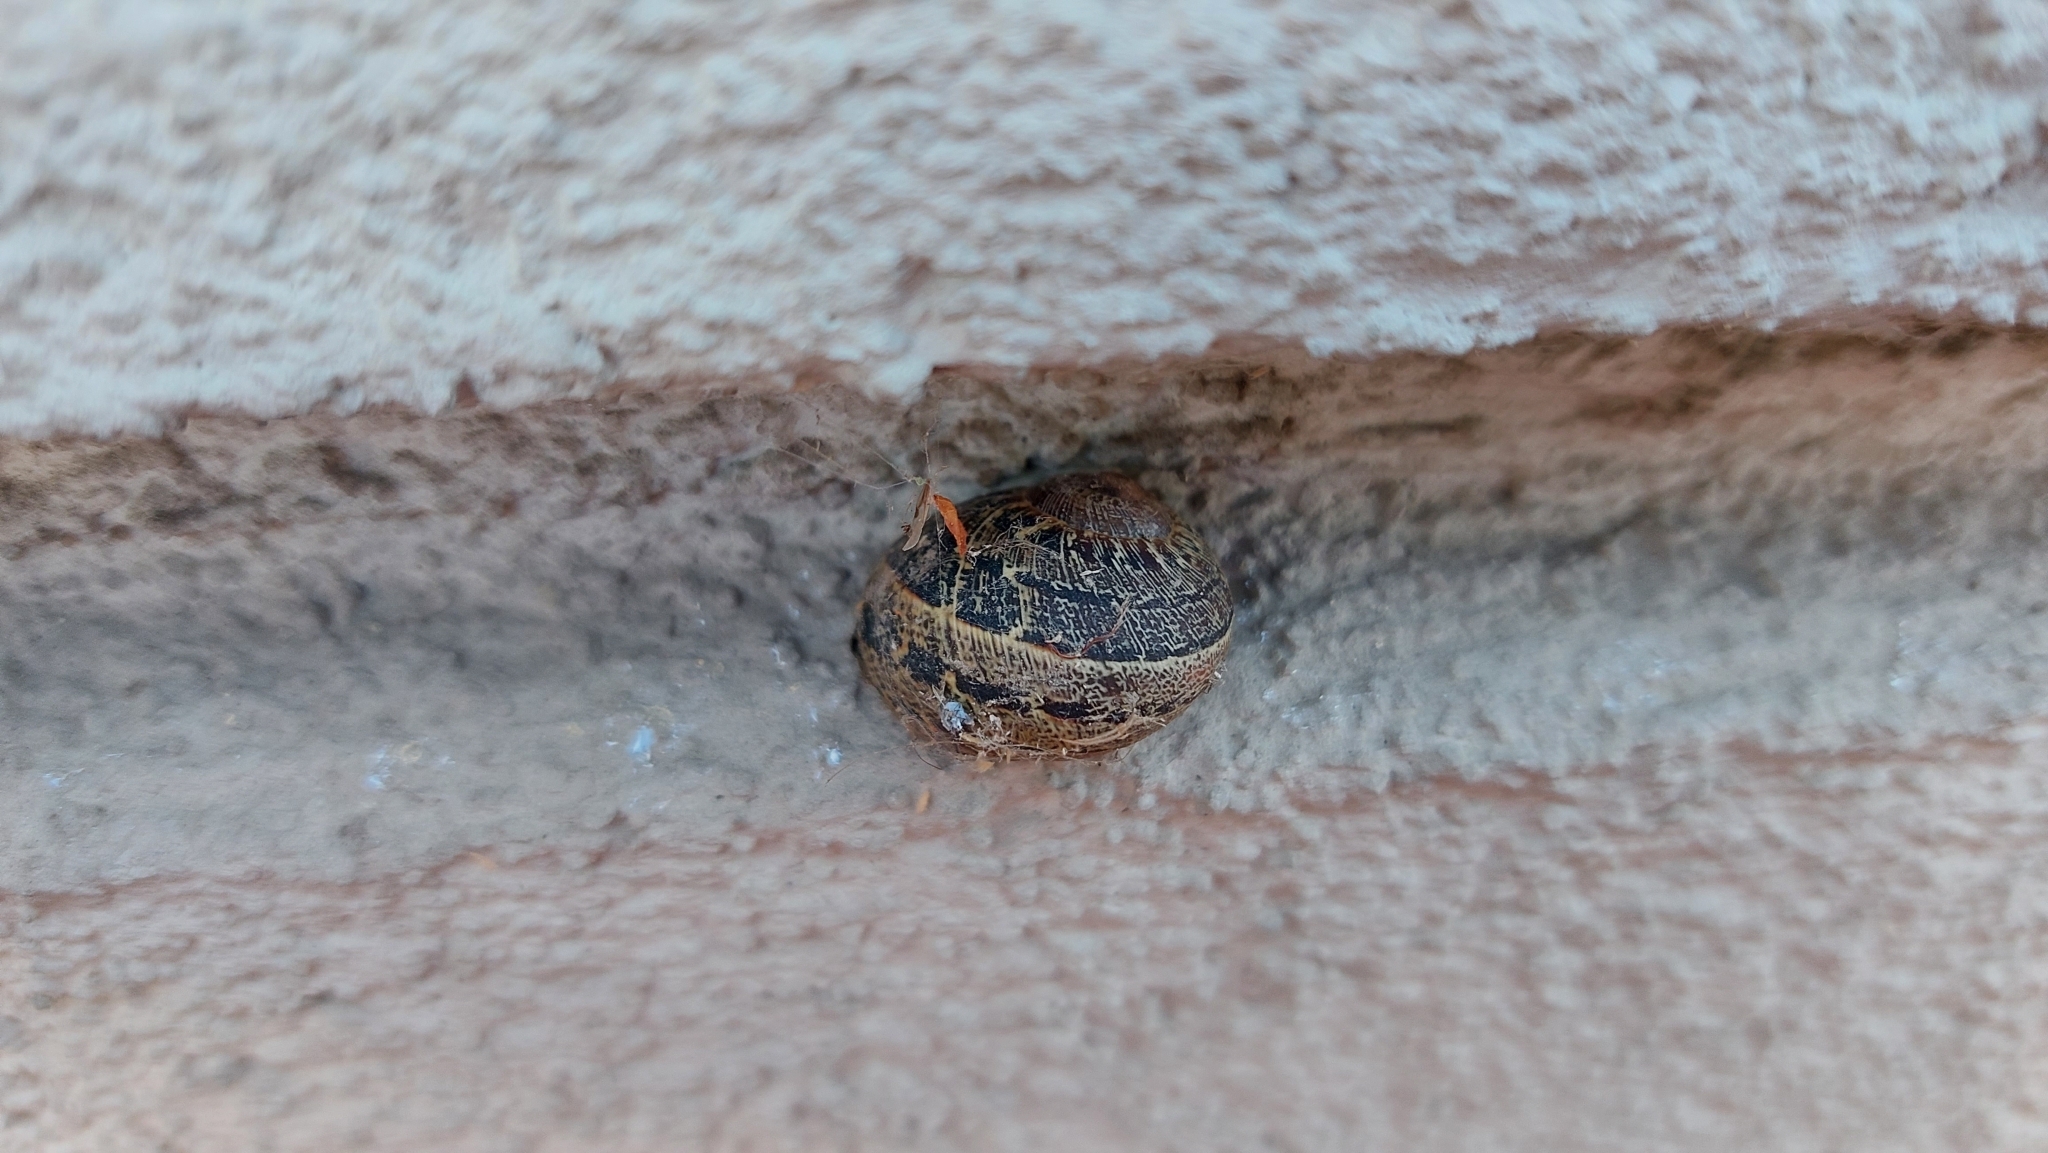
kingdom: Animalia
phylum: Mollusca
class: Gastropoda
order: Stylommatophora
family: Helicidae
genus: Cornu
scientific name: Cornu aspersum
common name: Brown garden snail
